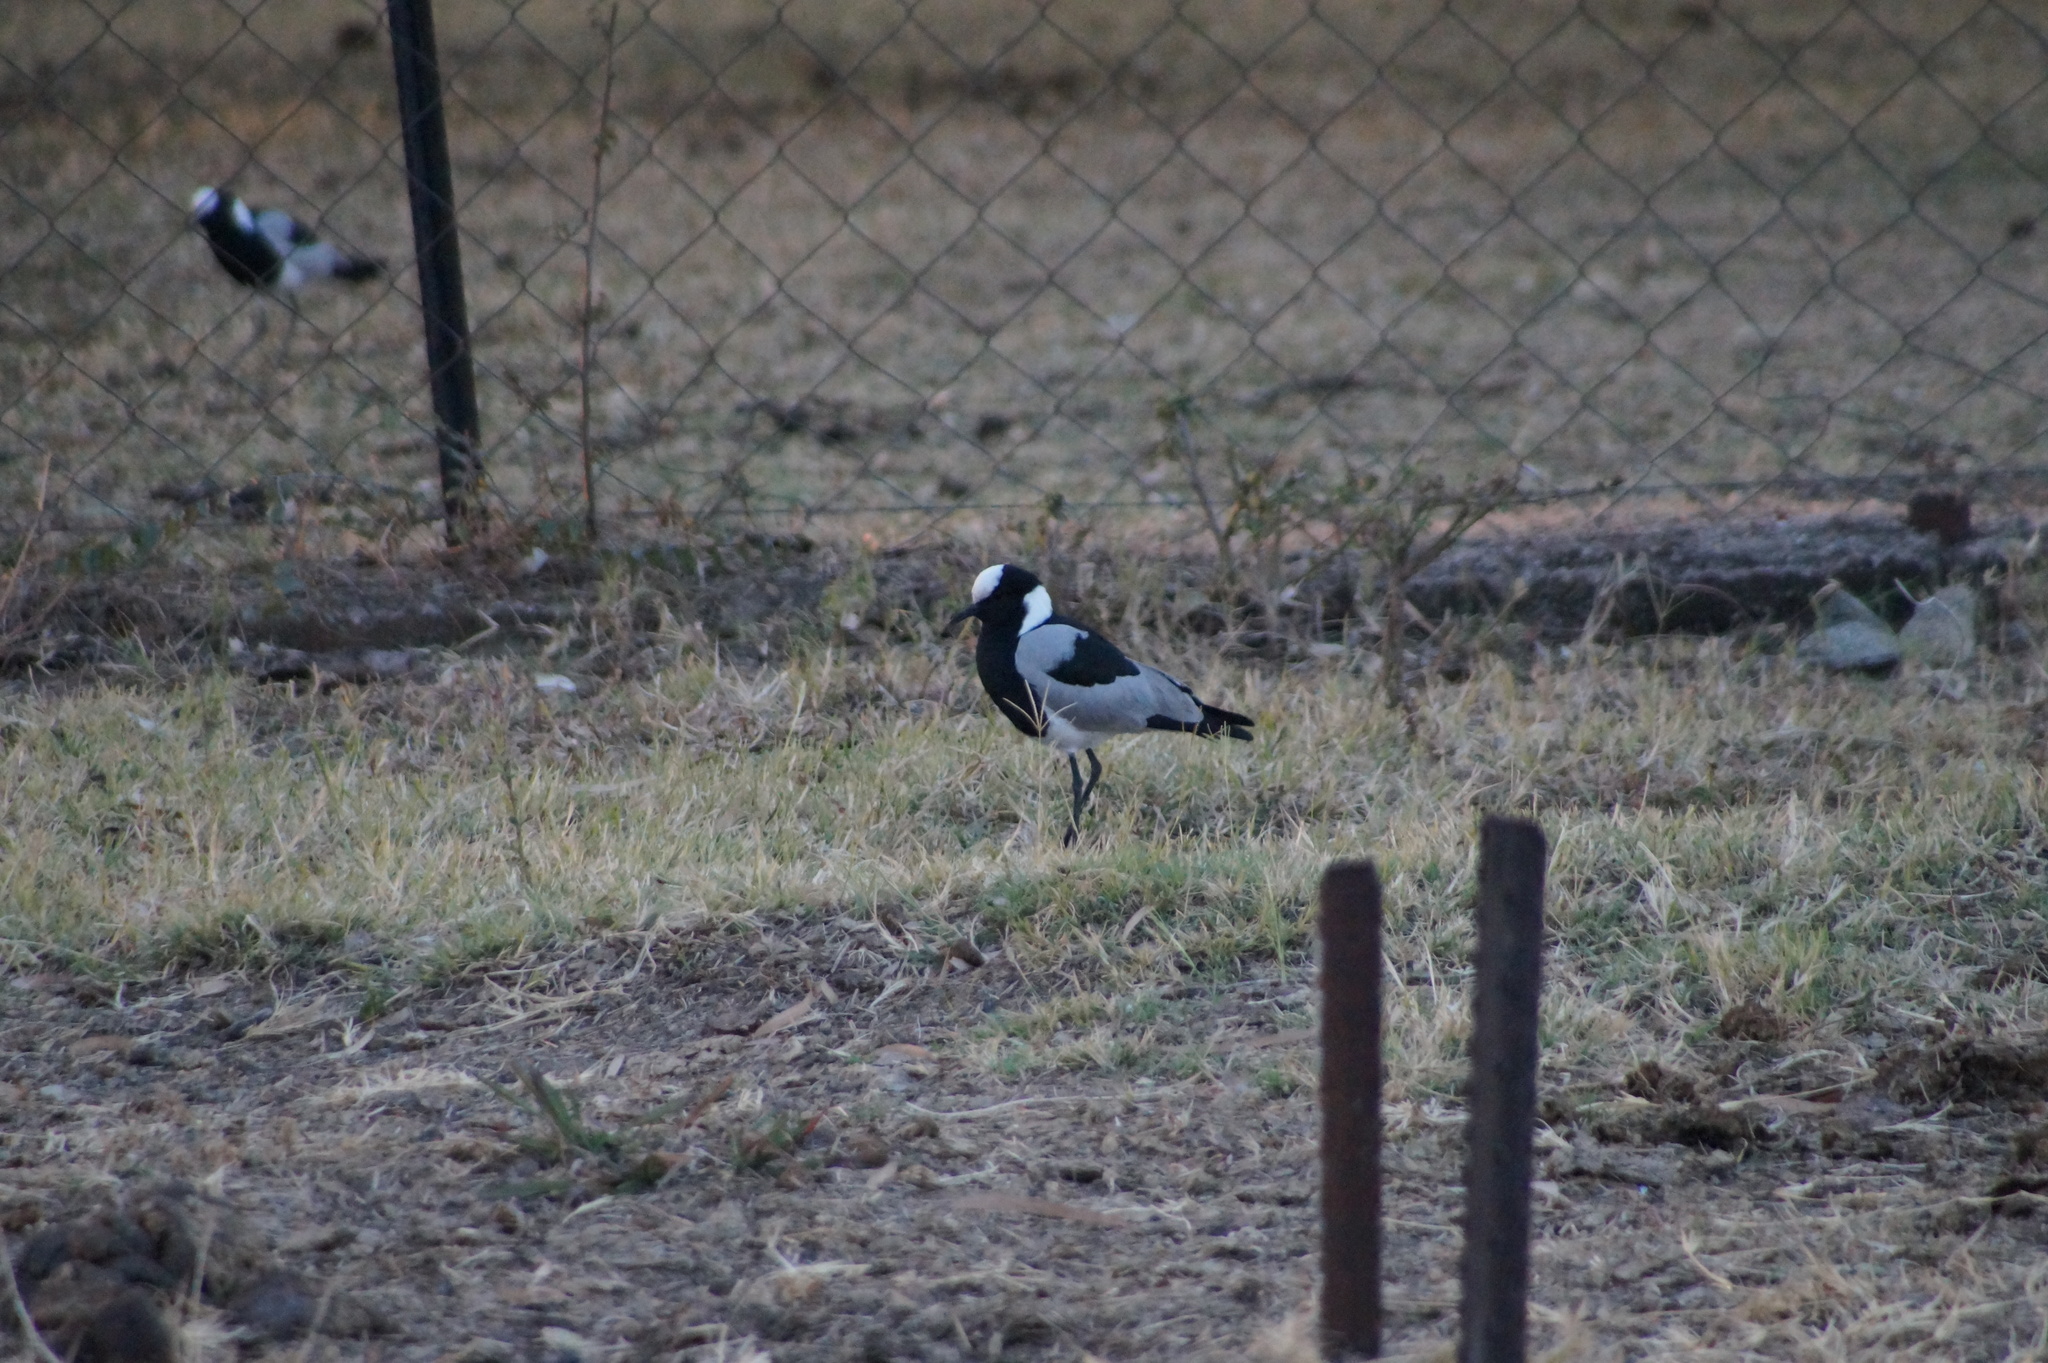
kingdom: Animalia
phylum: Chordata
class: Aves
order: Charadriiformes
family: Charadriidae
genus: Vanellus
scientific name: Vanellus armatus
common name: Blacksmith lapwing
